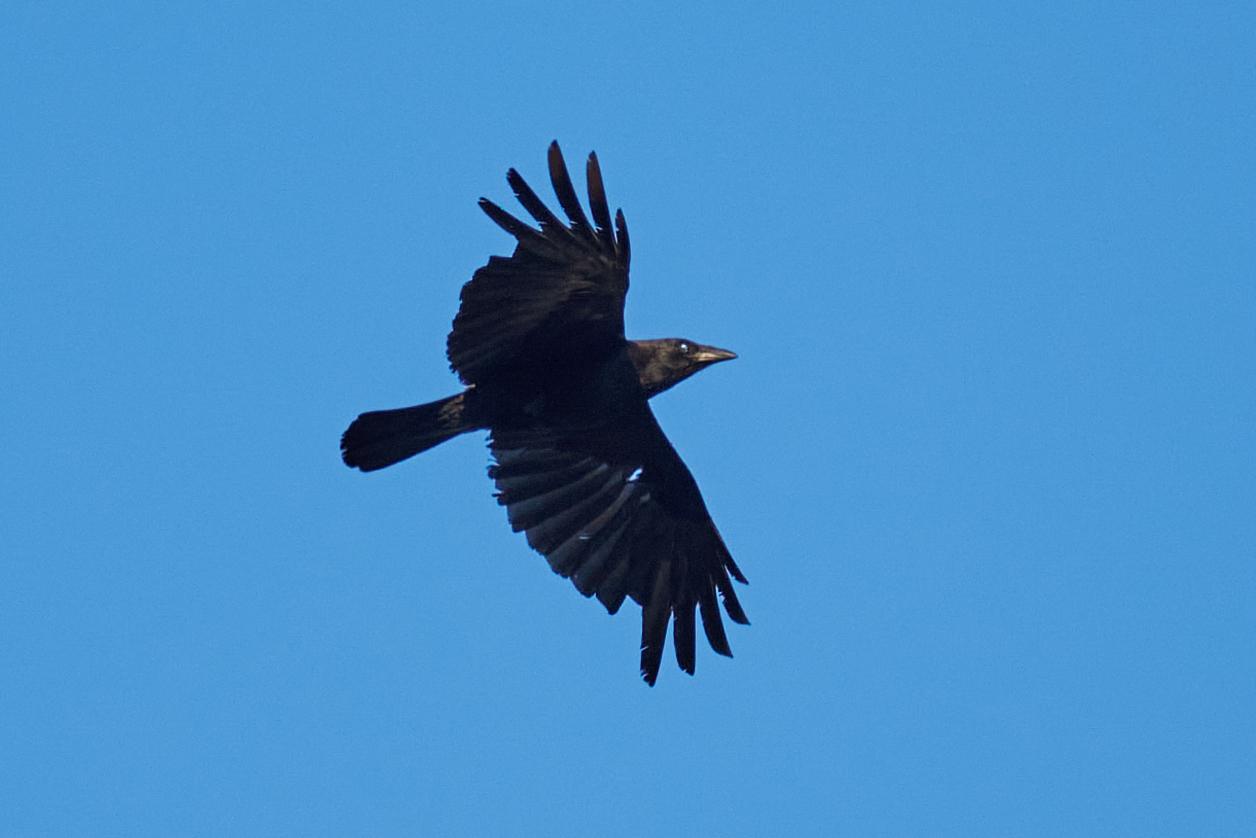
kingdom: Animalia
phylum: Chordata
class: Aves
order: Passeriformes
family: Corvidae
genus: Corvus
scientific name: Corvus brachyrhynchos
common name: American crow
